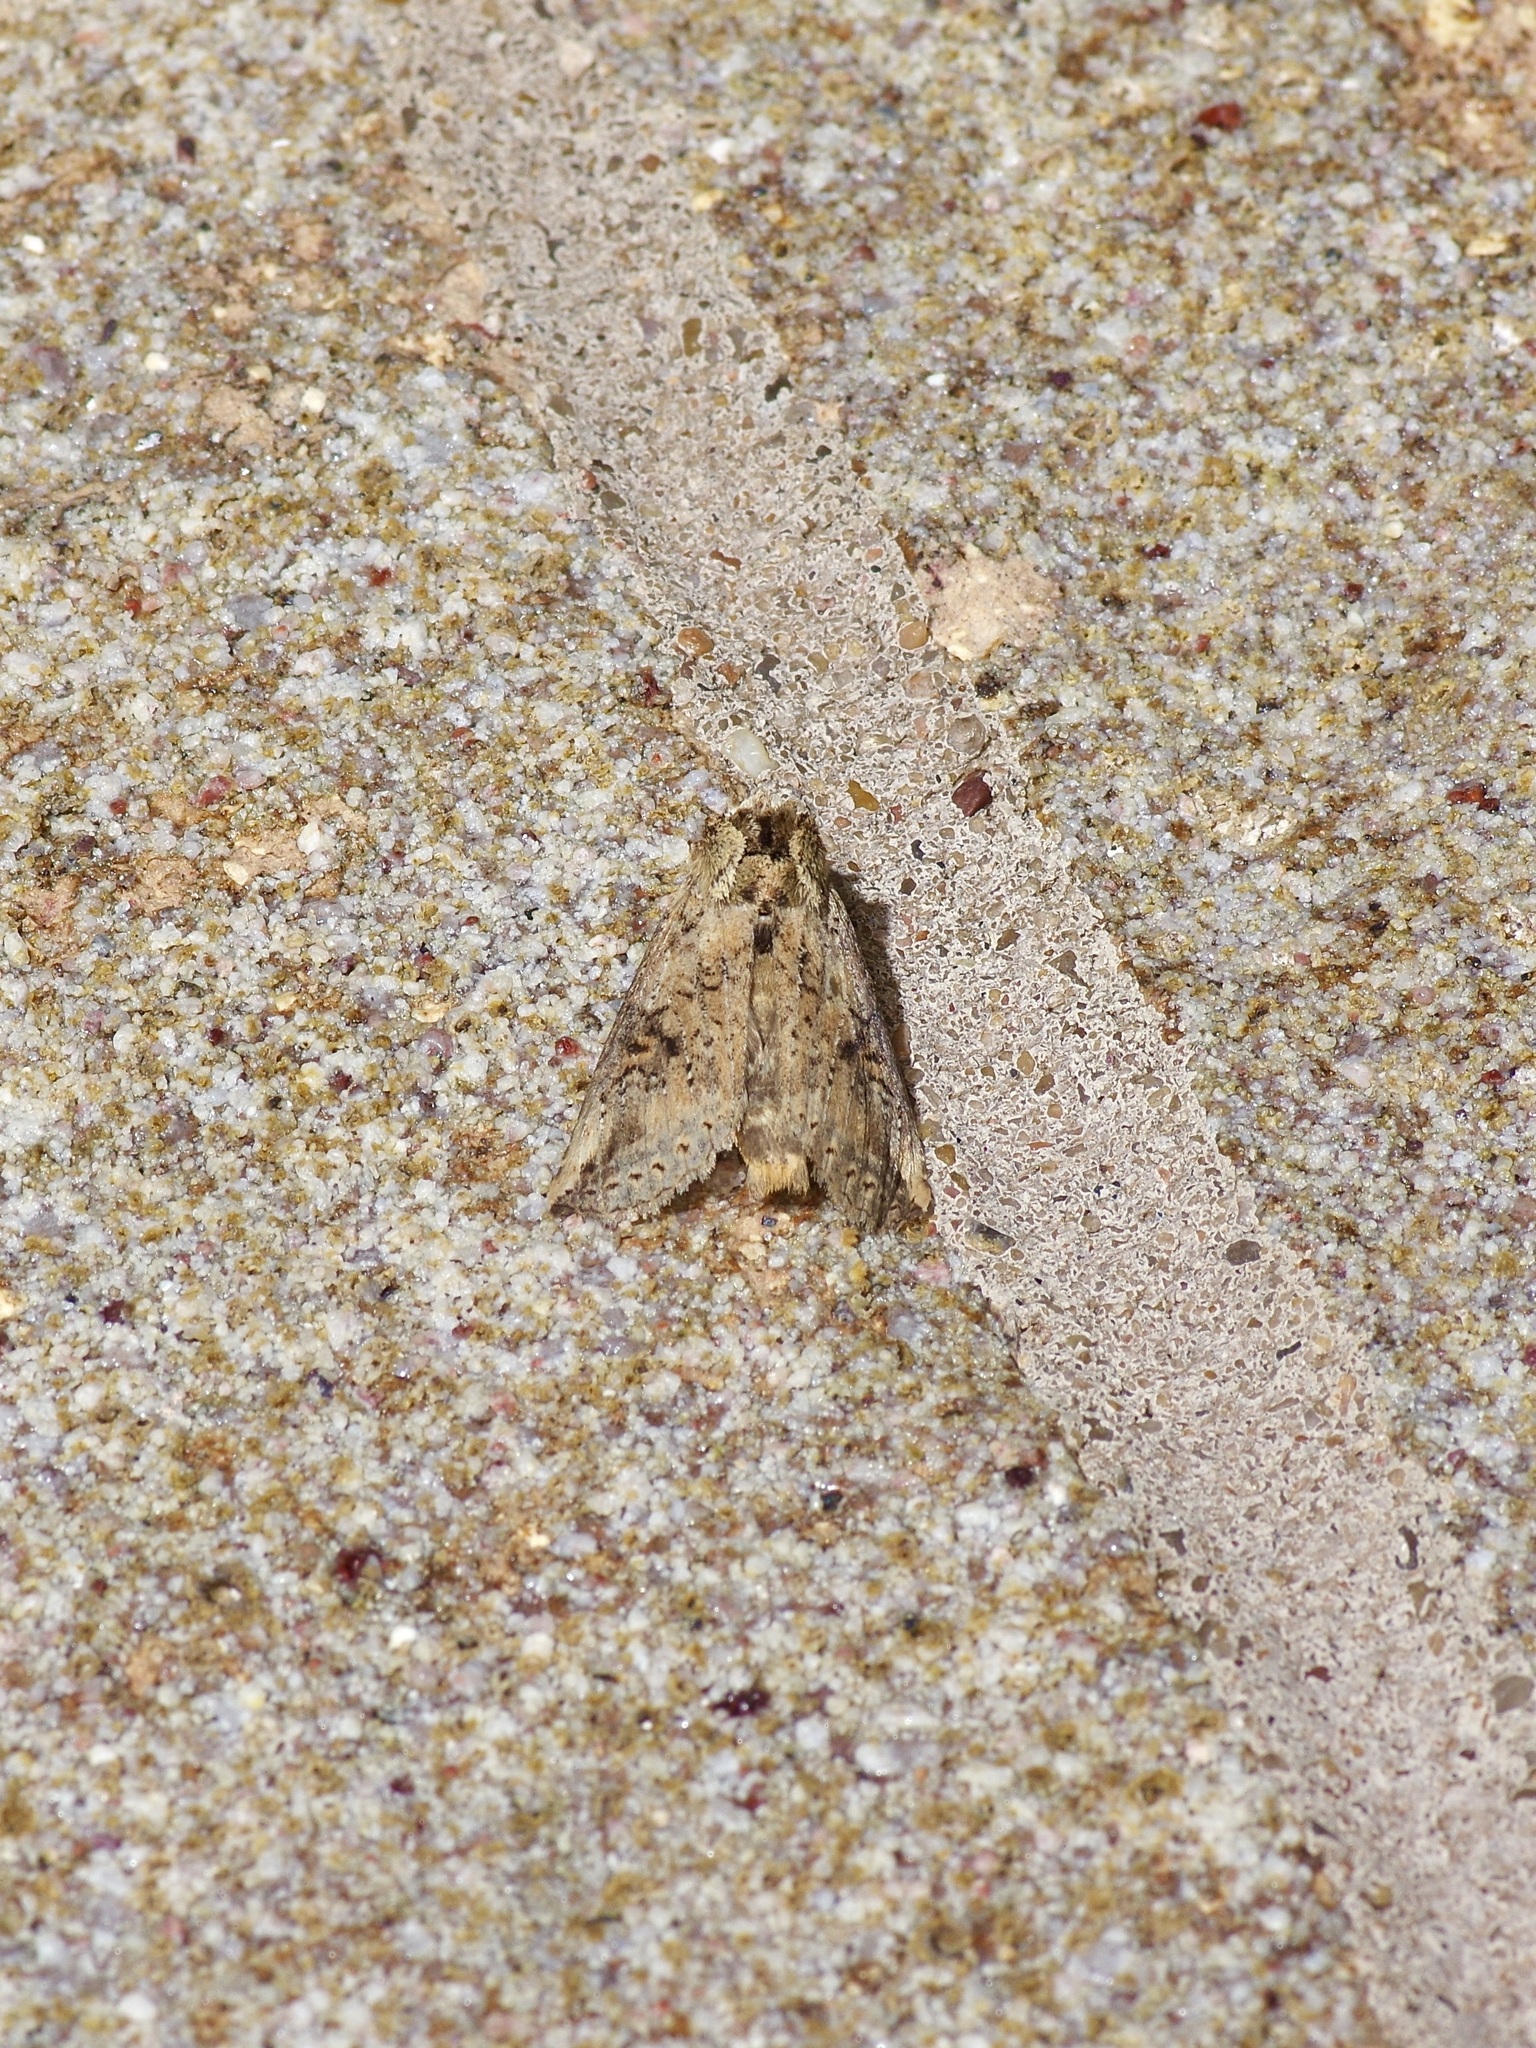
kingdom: Animalia
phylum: Arthropoda
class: Insecta
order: Lepidoptera
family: Notodontidae
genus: Elasmia
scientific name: Elasmia cave
